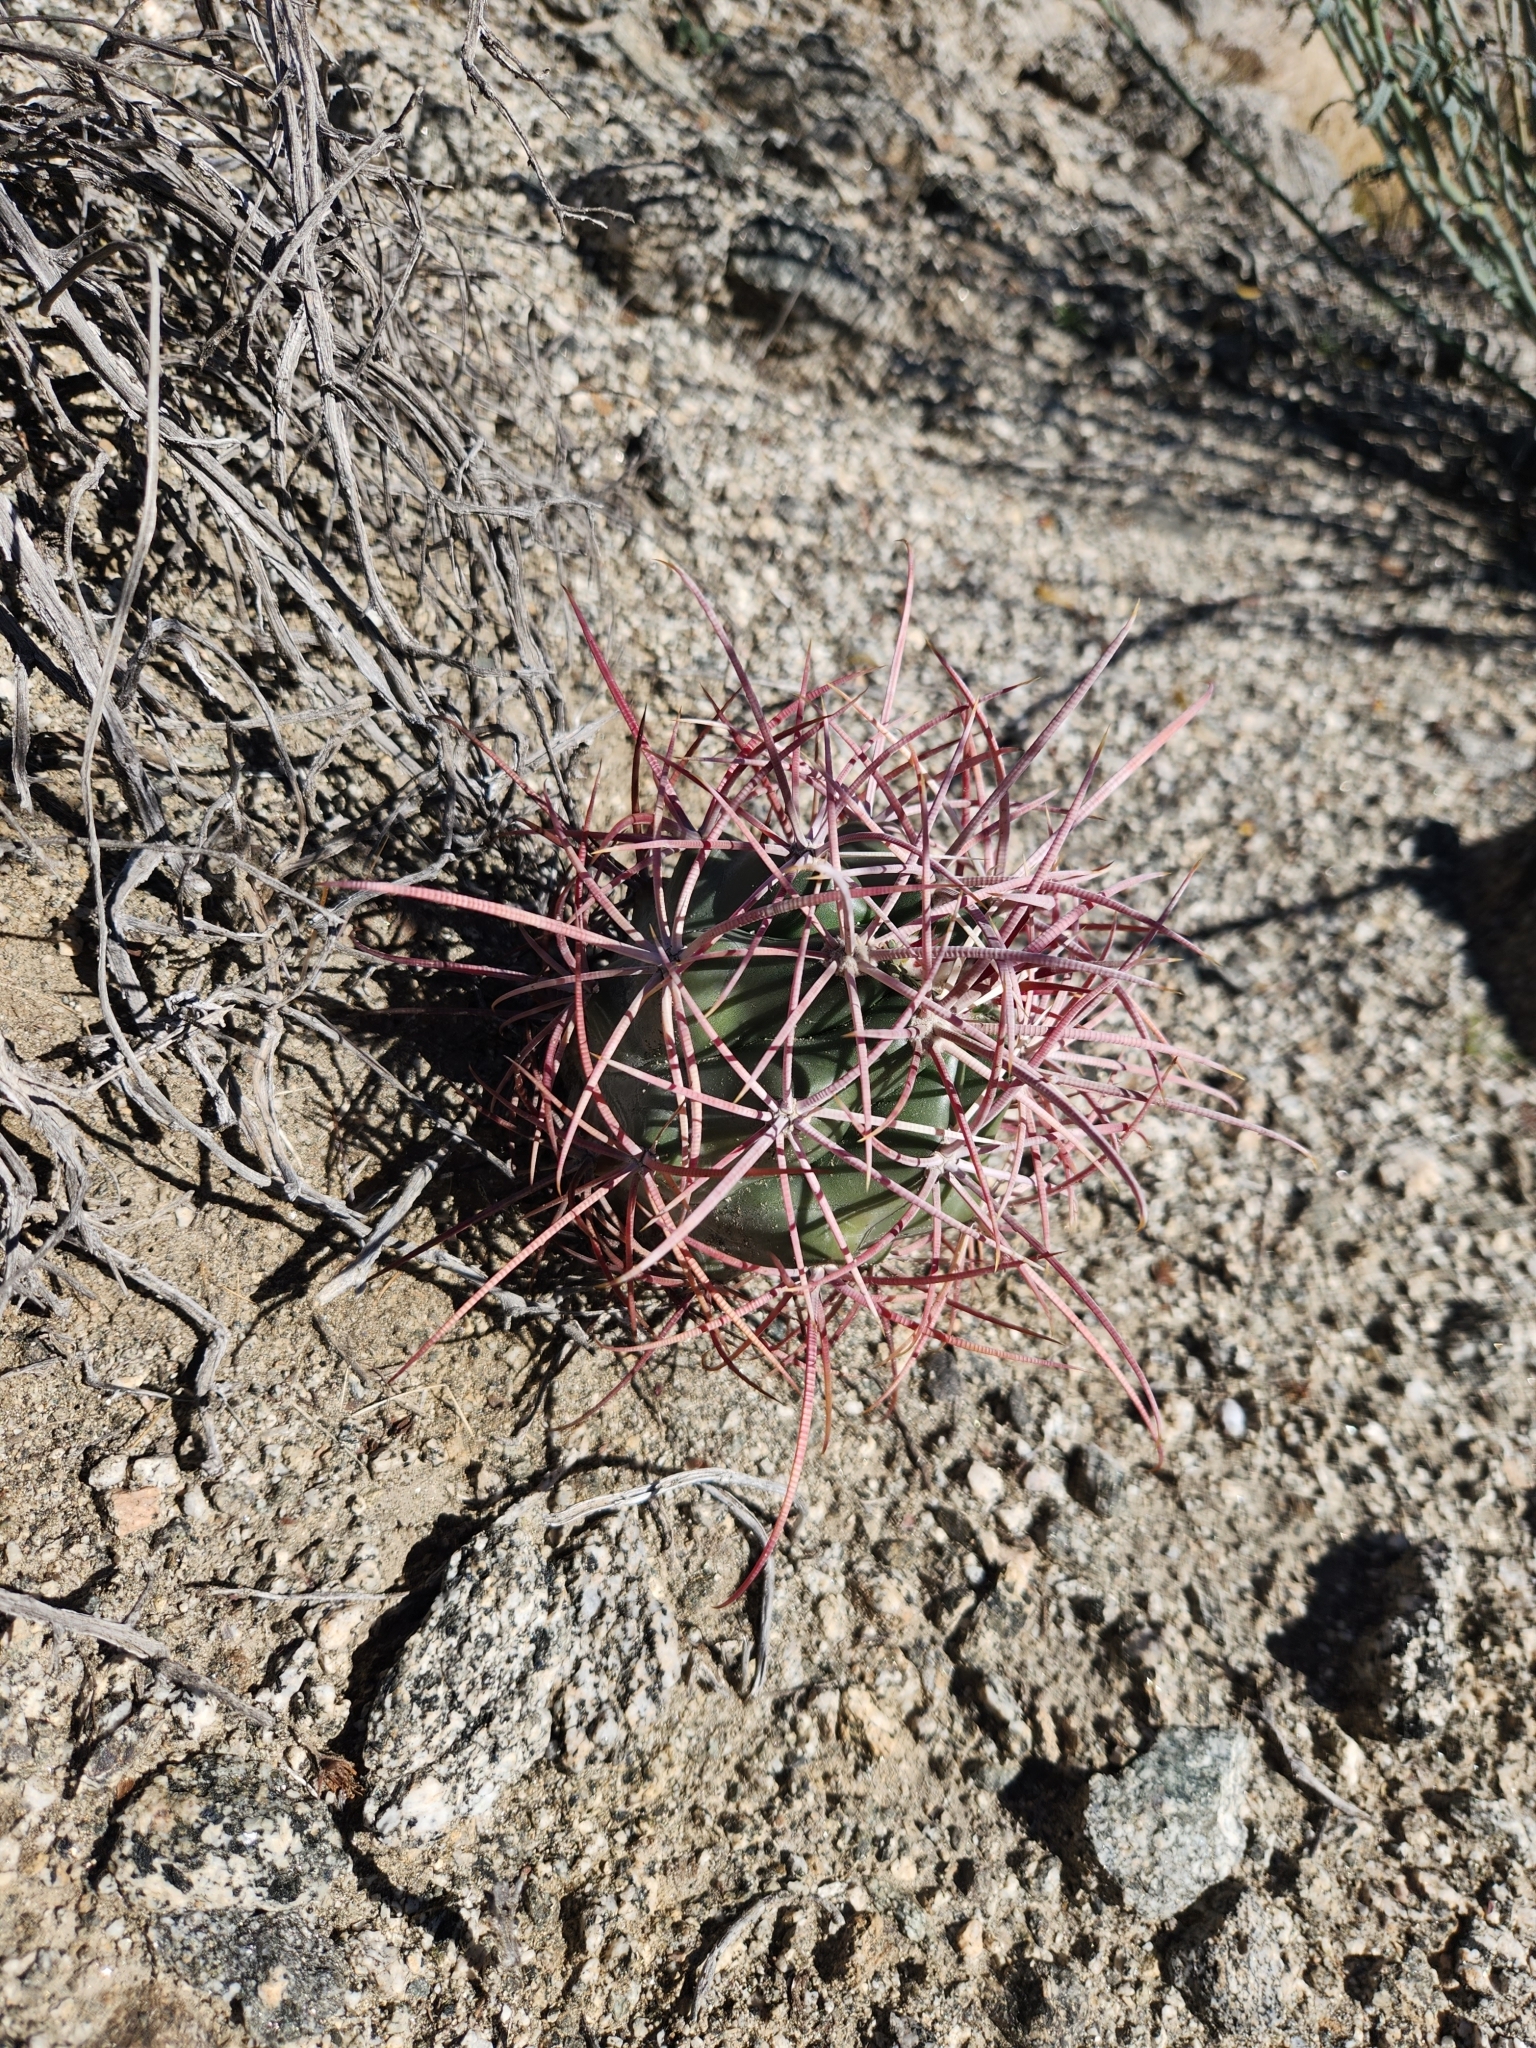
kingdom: Plantae
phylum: Tracheophyta
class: Magnoliopsida
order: Caryophyllales
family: Cactaceae
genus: Ferocactus
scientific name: Ferocactus cylindraceus
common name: California barrel cactus
